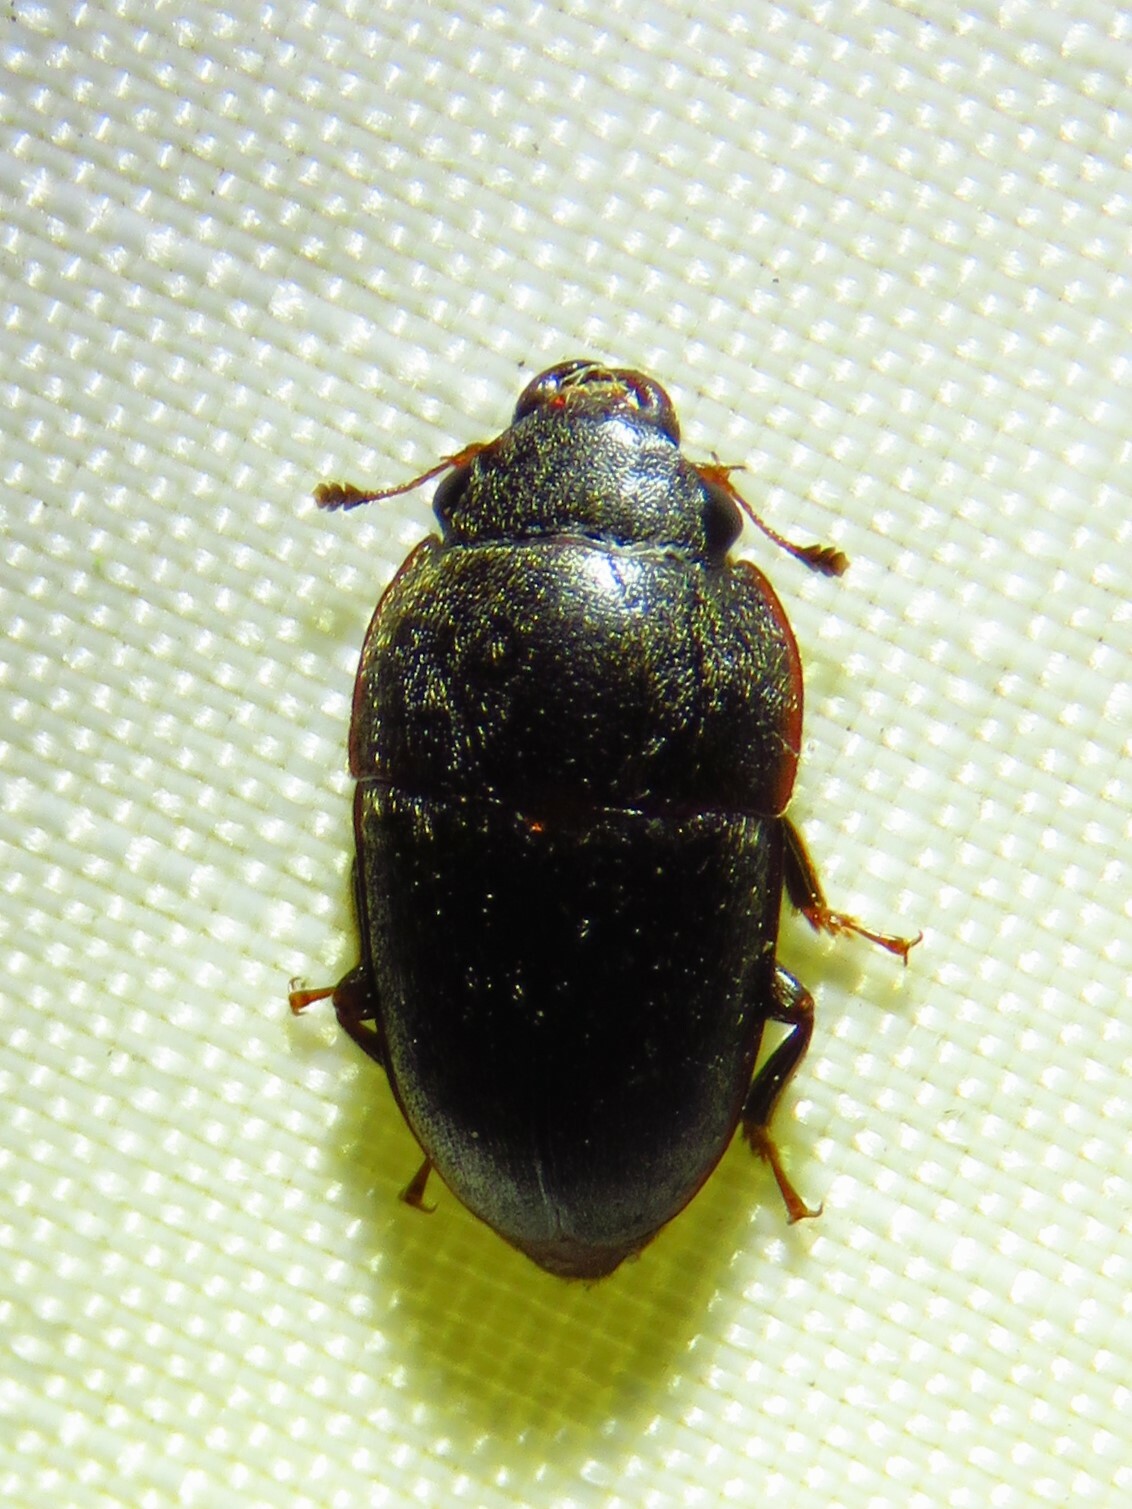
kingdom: Animalia
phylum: Arthropoda
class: Insecta
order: Coleoptera
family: Nitidulidae
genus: Cryptarcha
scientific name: Cryptarcha ampla
